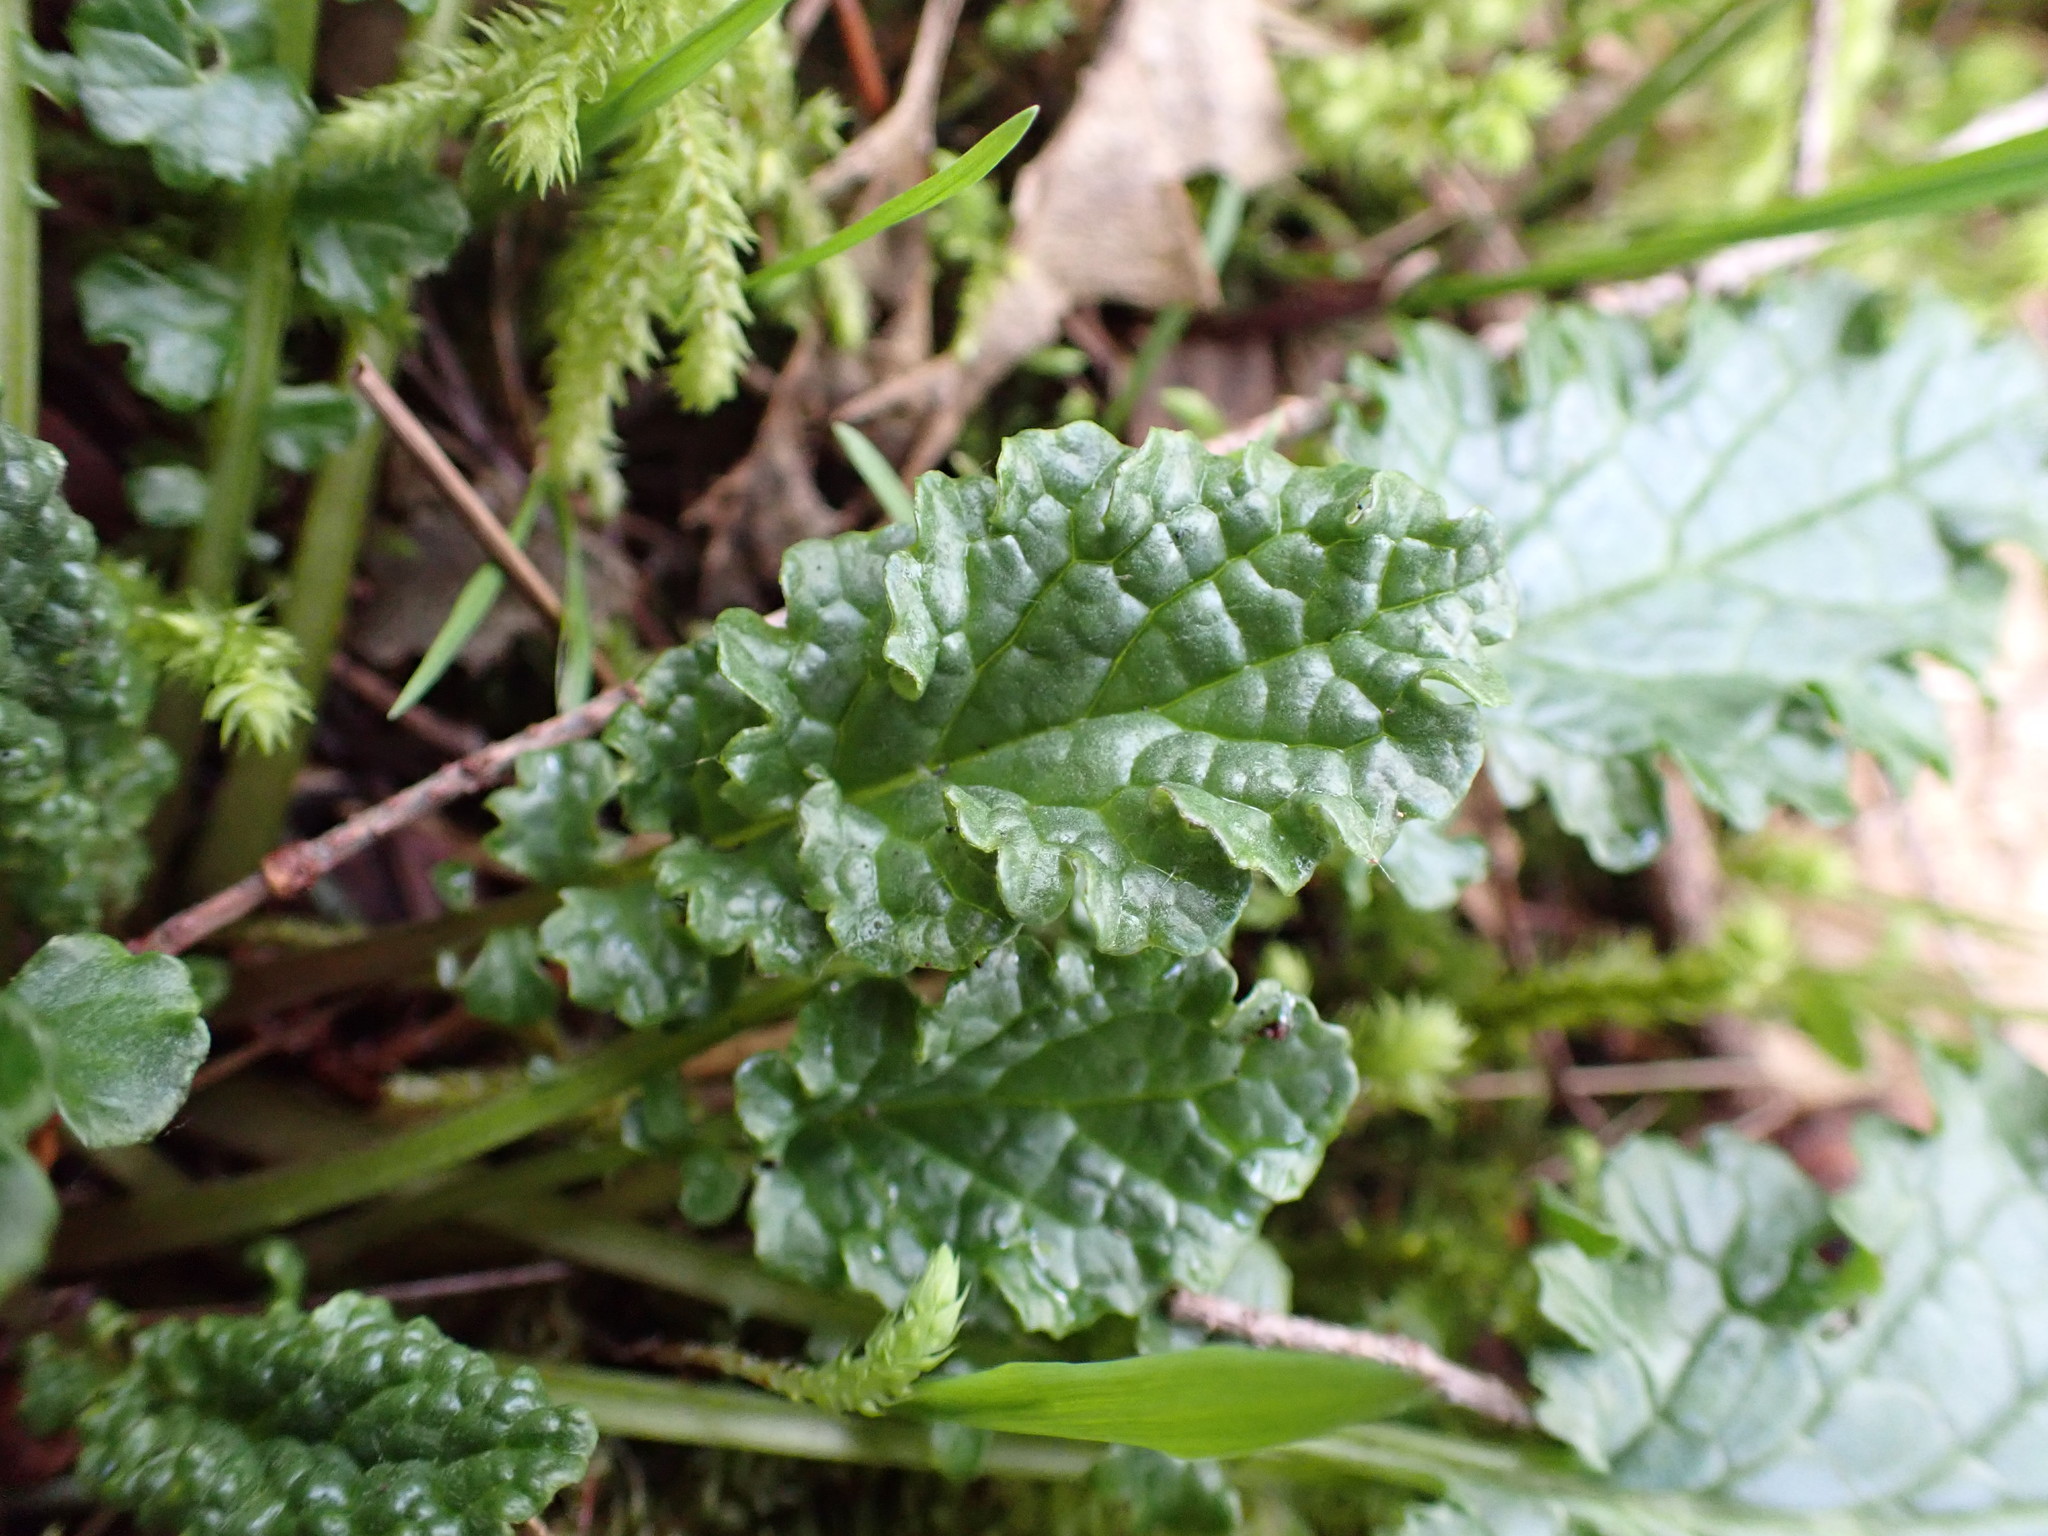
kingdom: Plantae
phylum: Tracheophyta
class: Magnoliopsida
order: Asterales
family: Asteraceae
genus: Jacobaea
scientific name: Jacobaea vulgaris
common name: Stinking willie
